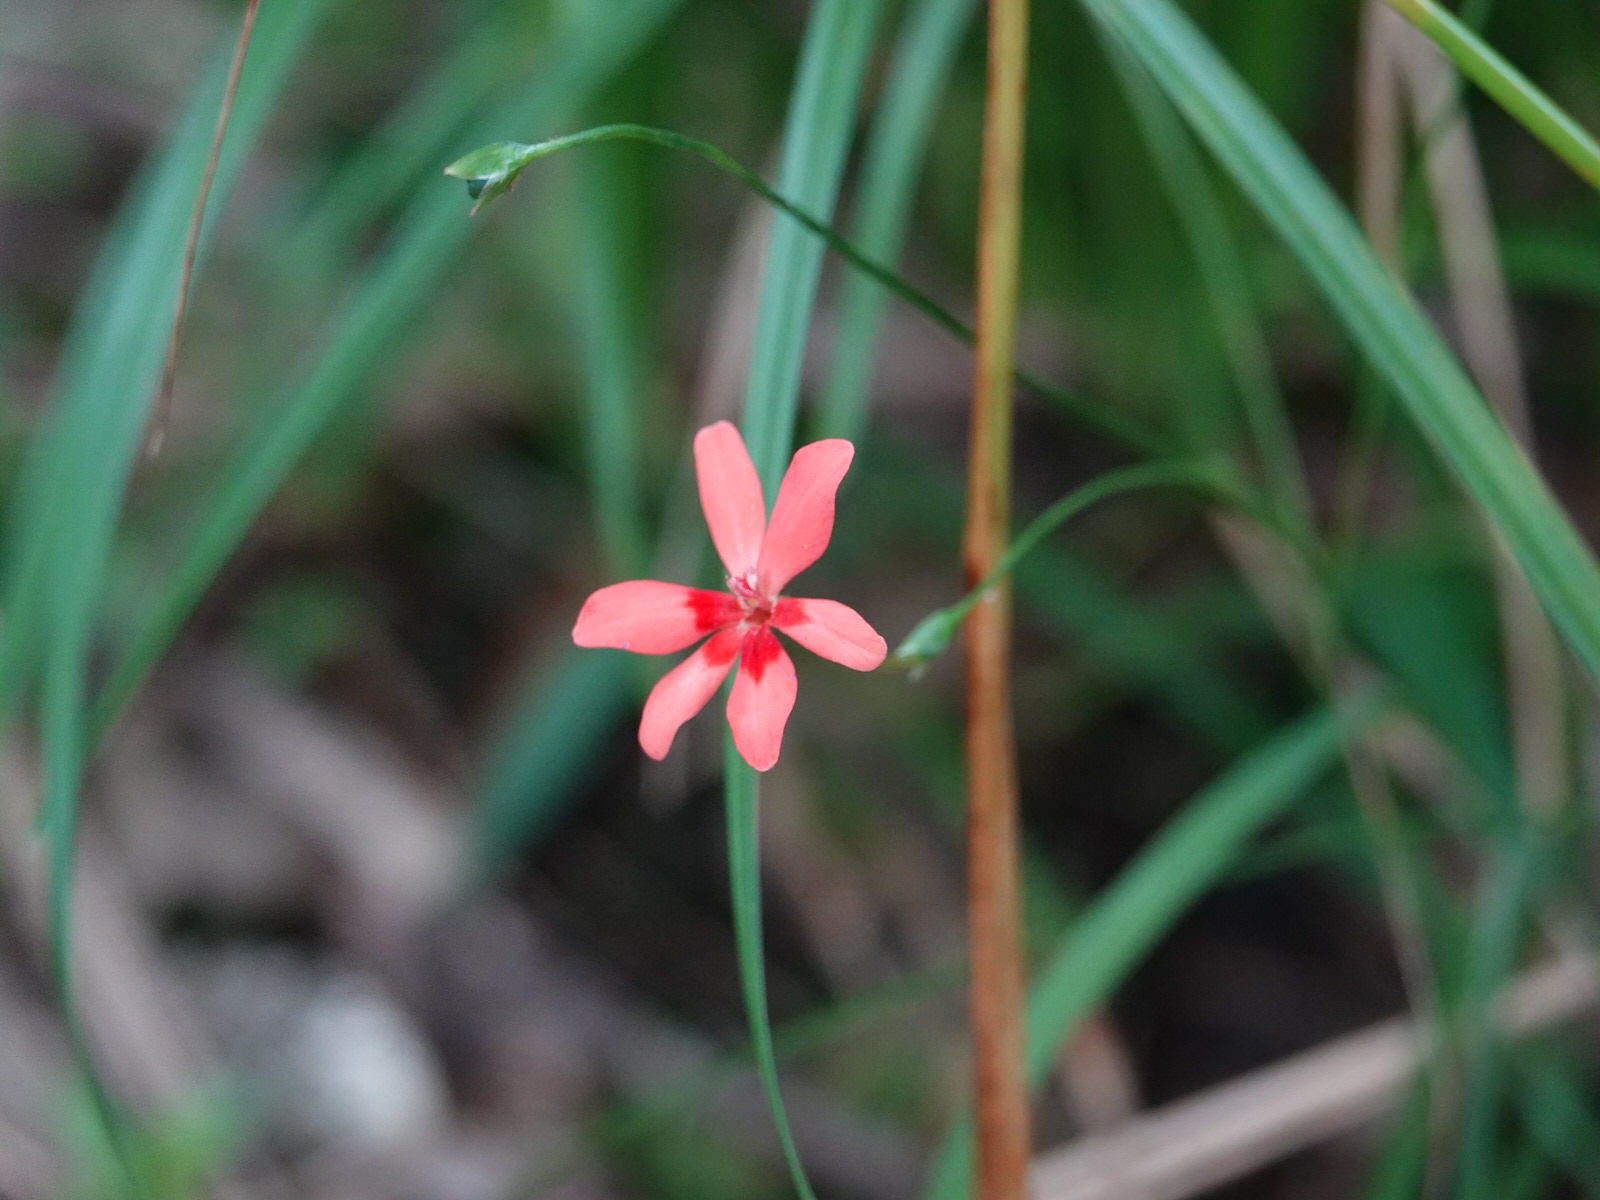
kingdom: Plantae
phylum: Tracheophyta
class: Liliopsida
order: Asparagales
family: Iridaceae
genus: Freesia
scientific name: Freesia laxa
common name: False freesia
